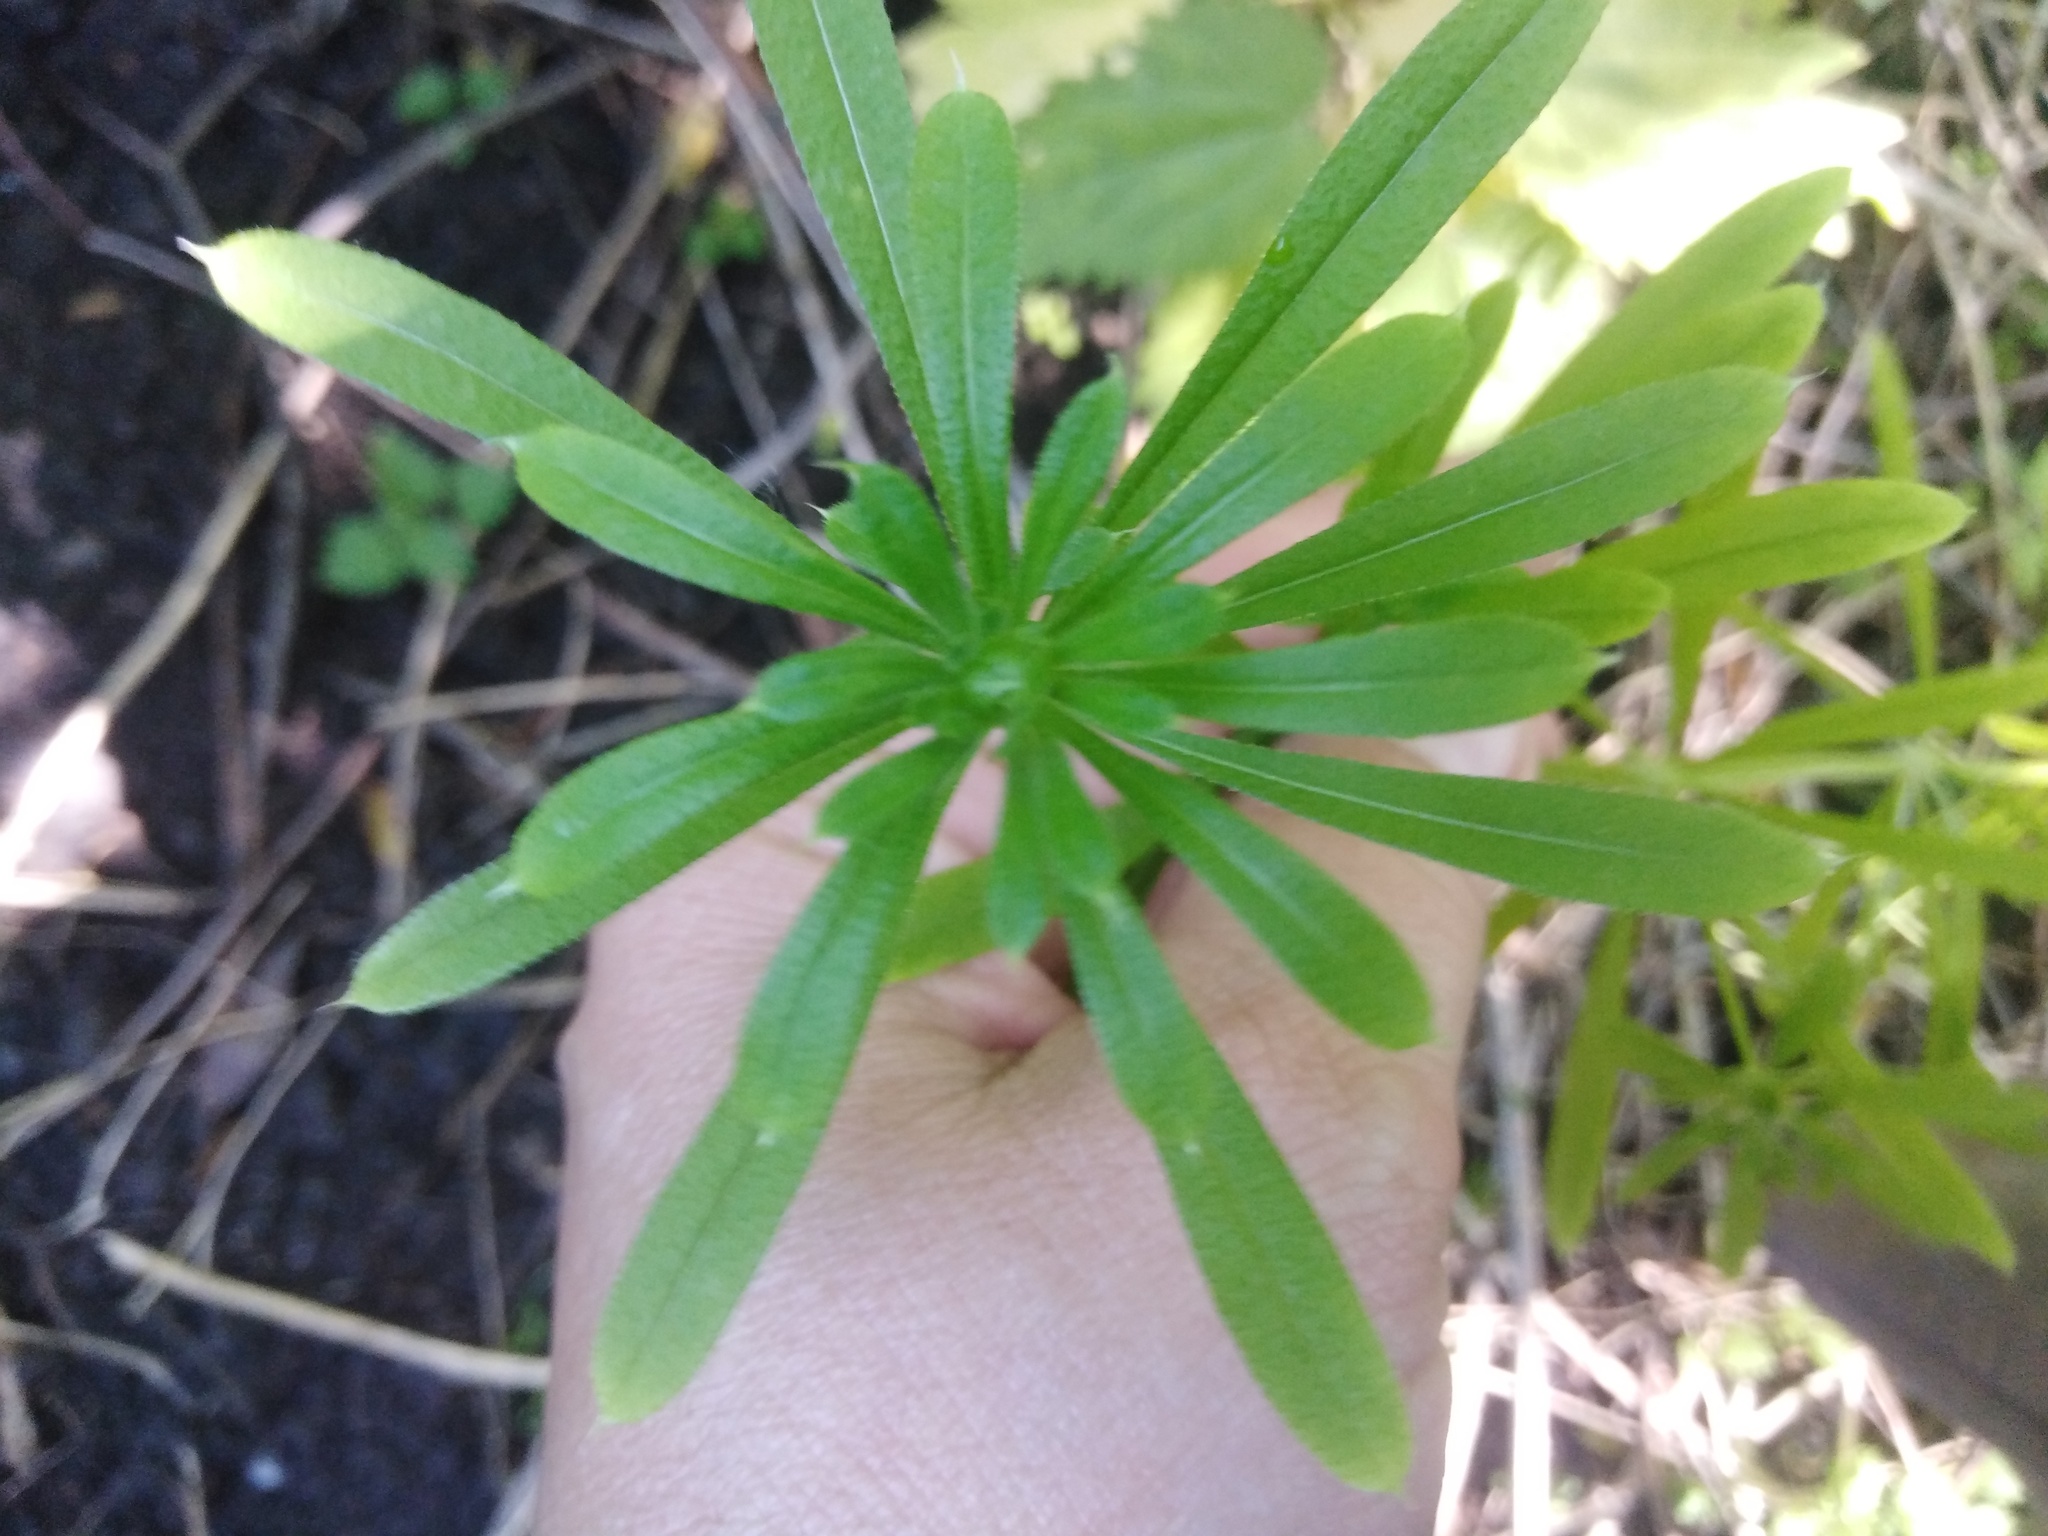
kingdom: Plantae
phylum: Tracheophyta
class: Magnoliopsida
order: Gentianales
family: Rubiaceae
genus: Galium
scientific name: Galium aparine
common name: Cleavers
